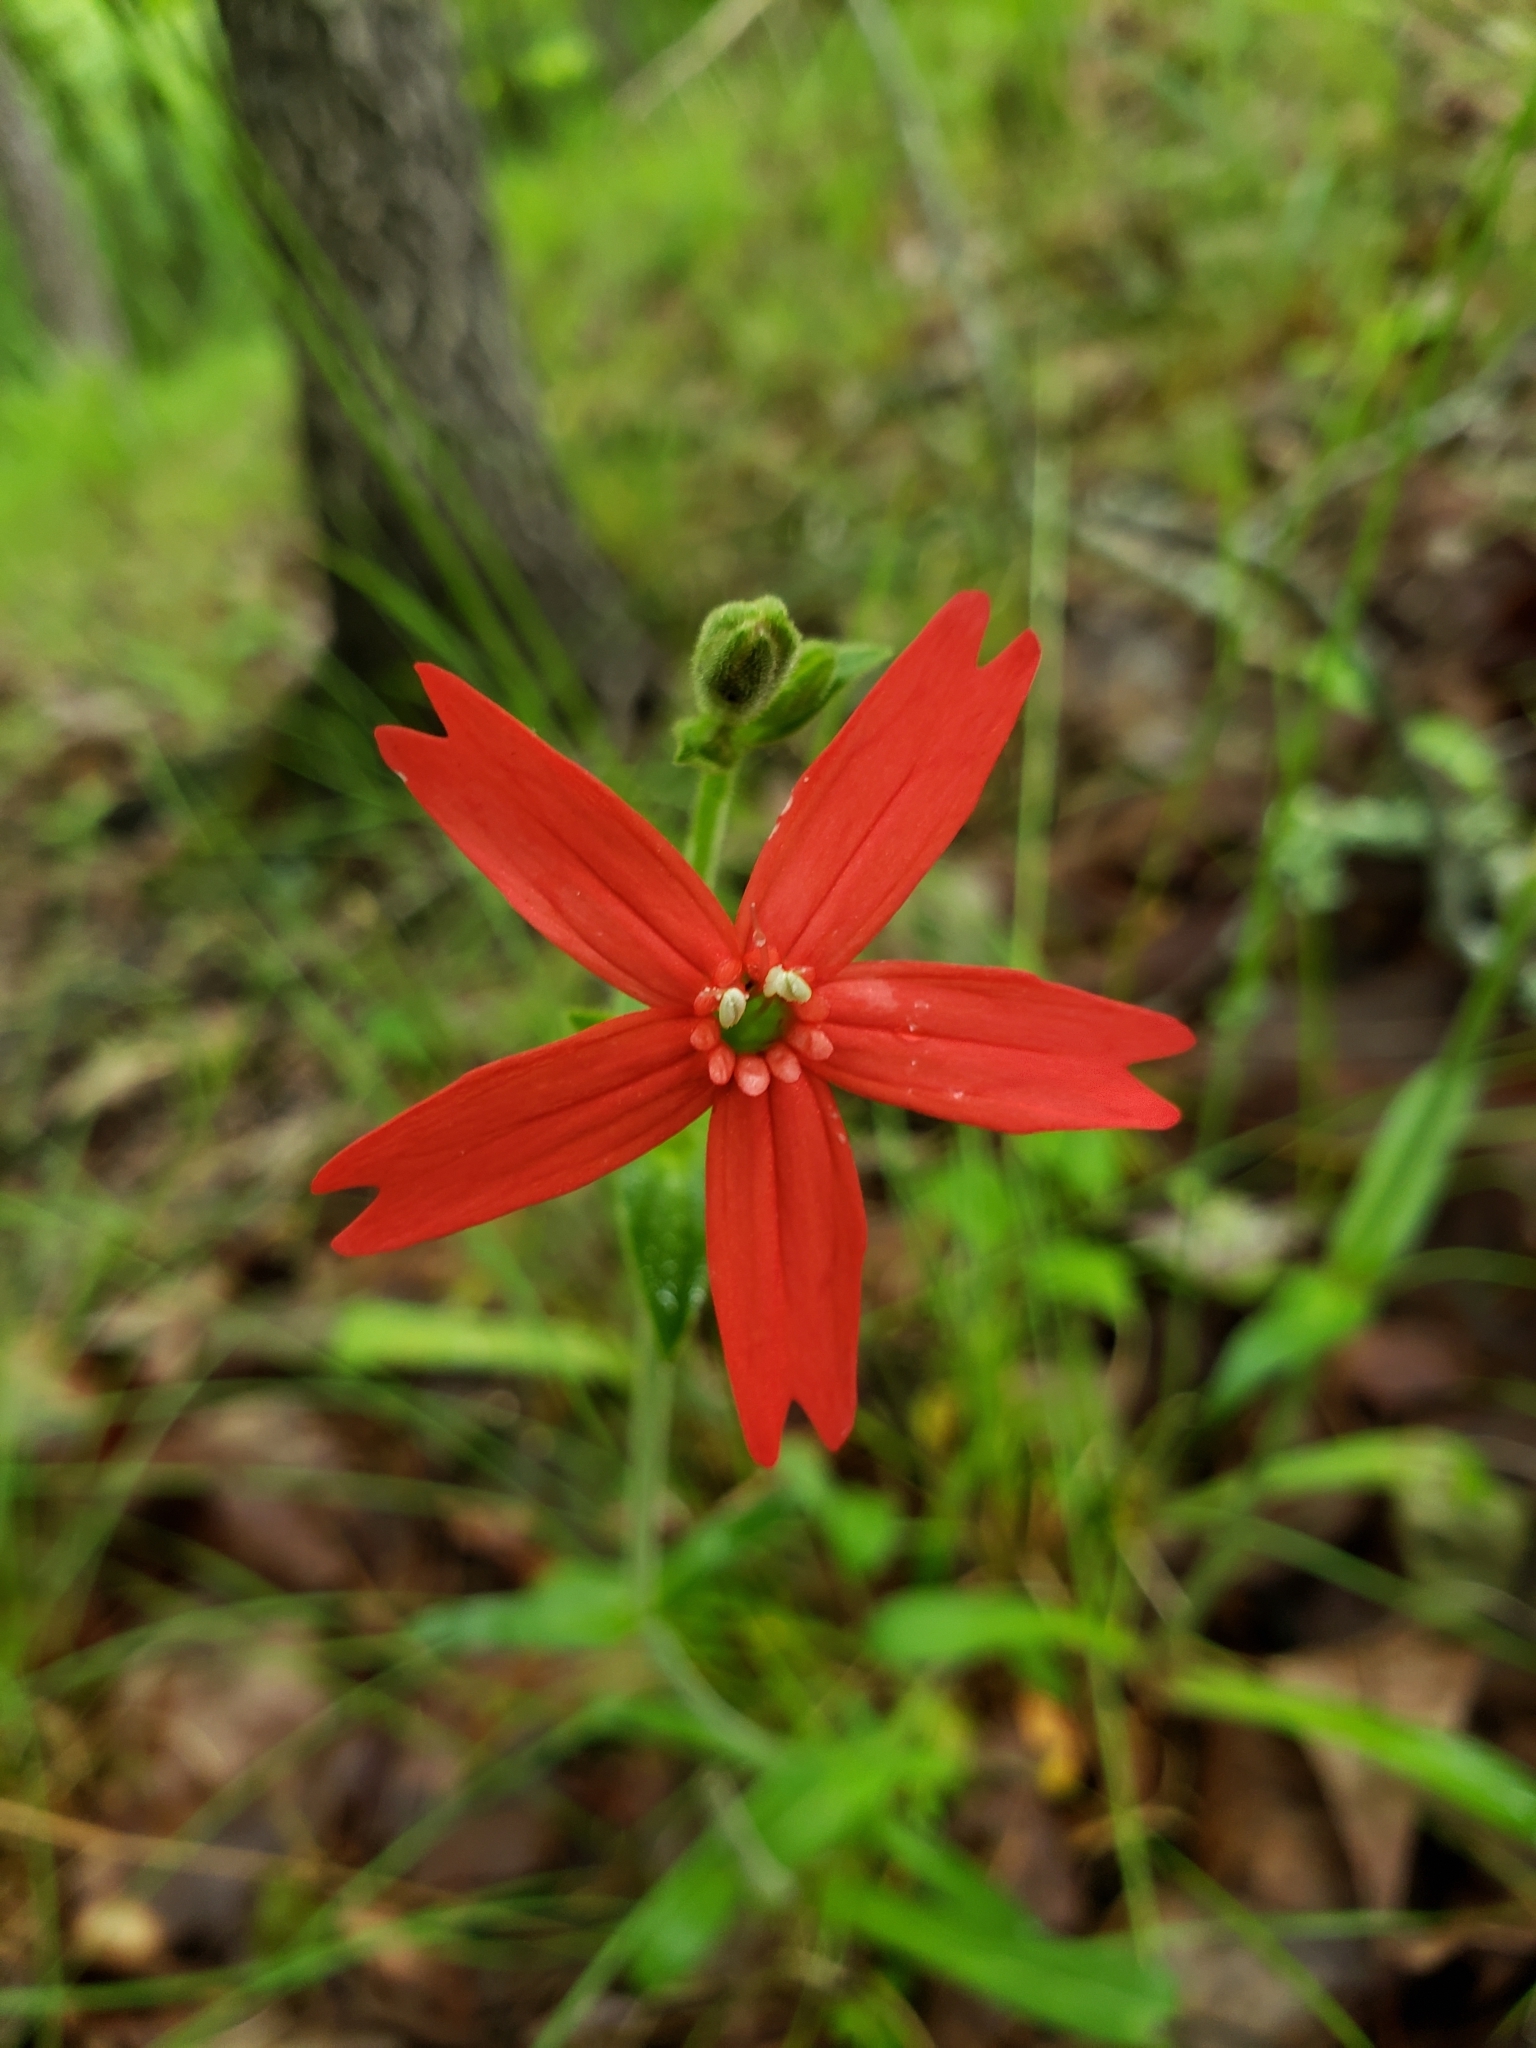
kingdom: Plantae
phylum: Tracheophyta
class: Magnoliopsida
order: Caryophyllales
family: Caryophyllaceae
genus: Silene
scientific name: Silene virginica
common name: Fire-pink
